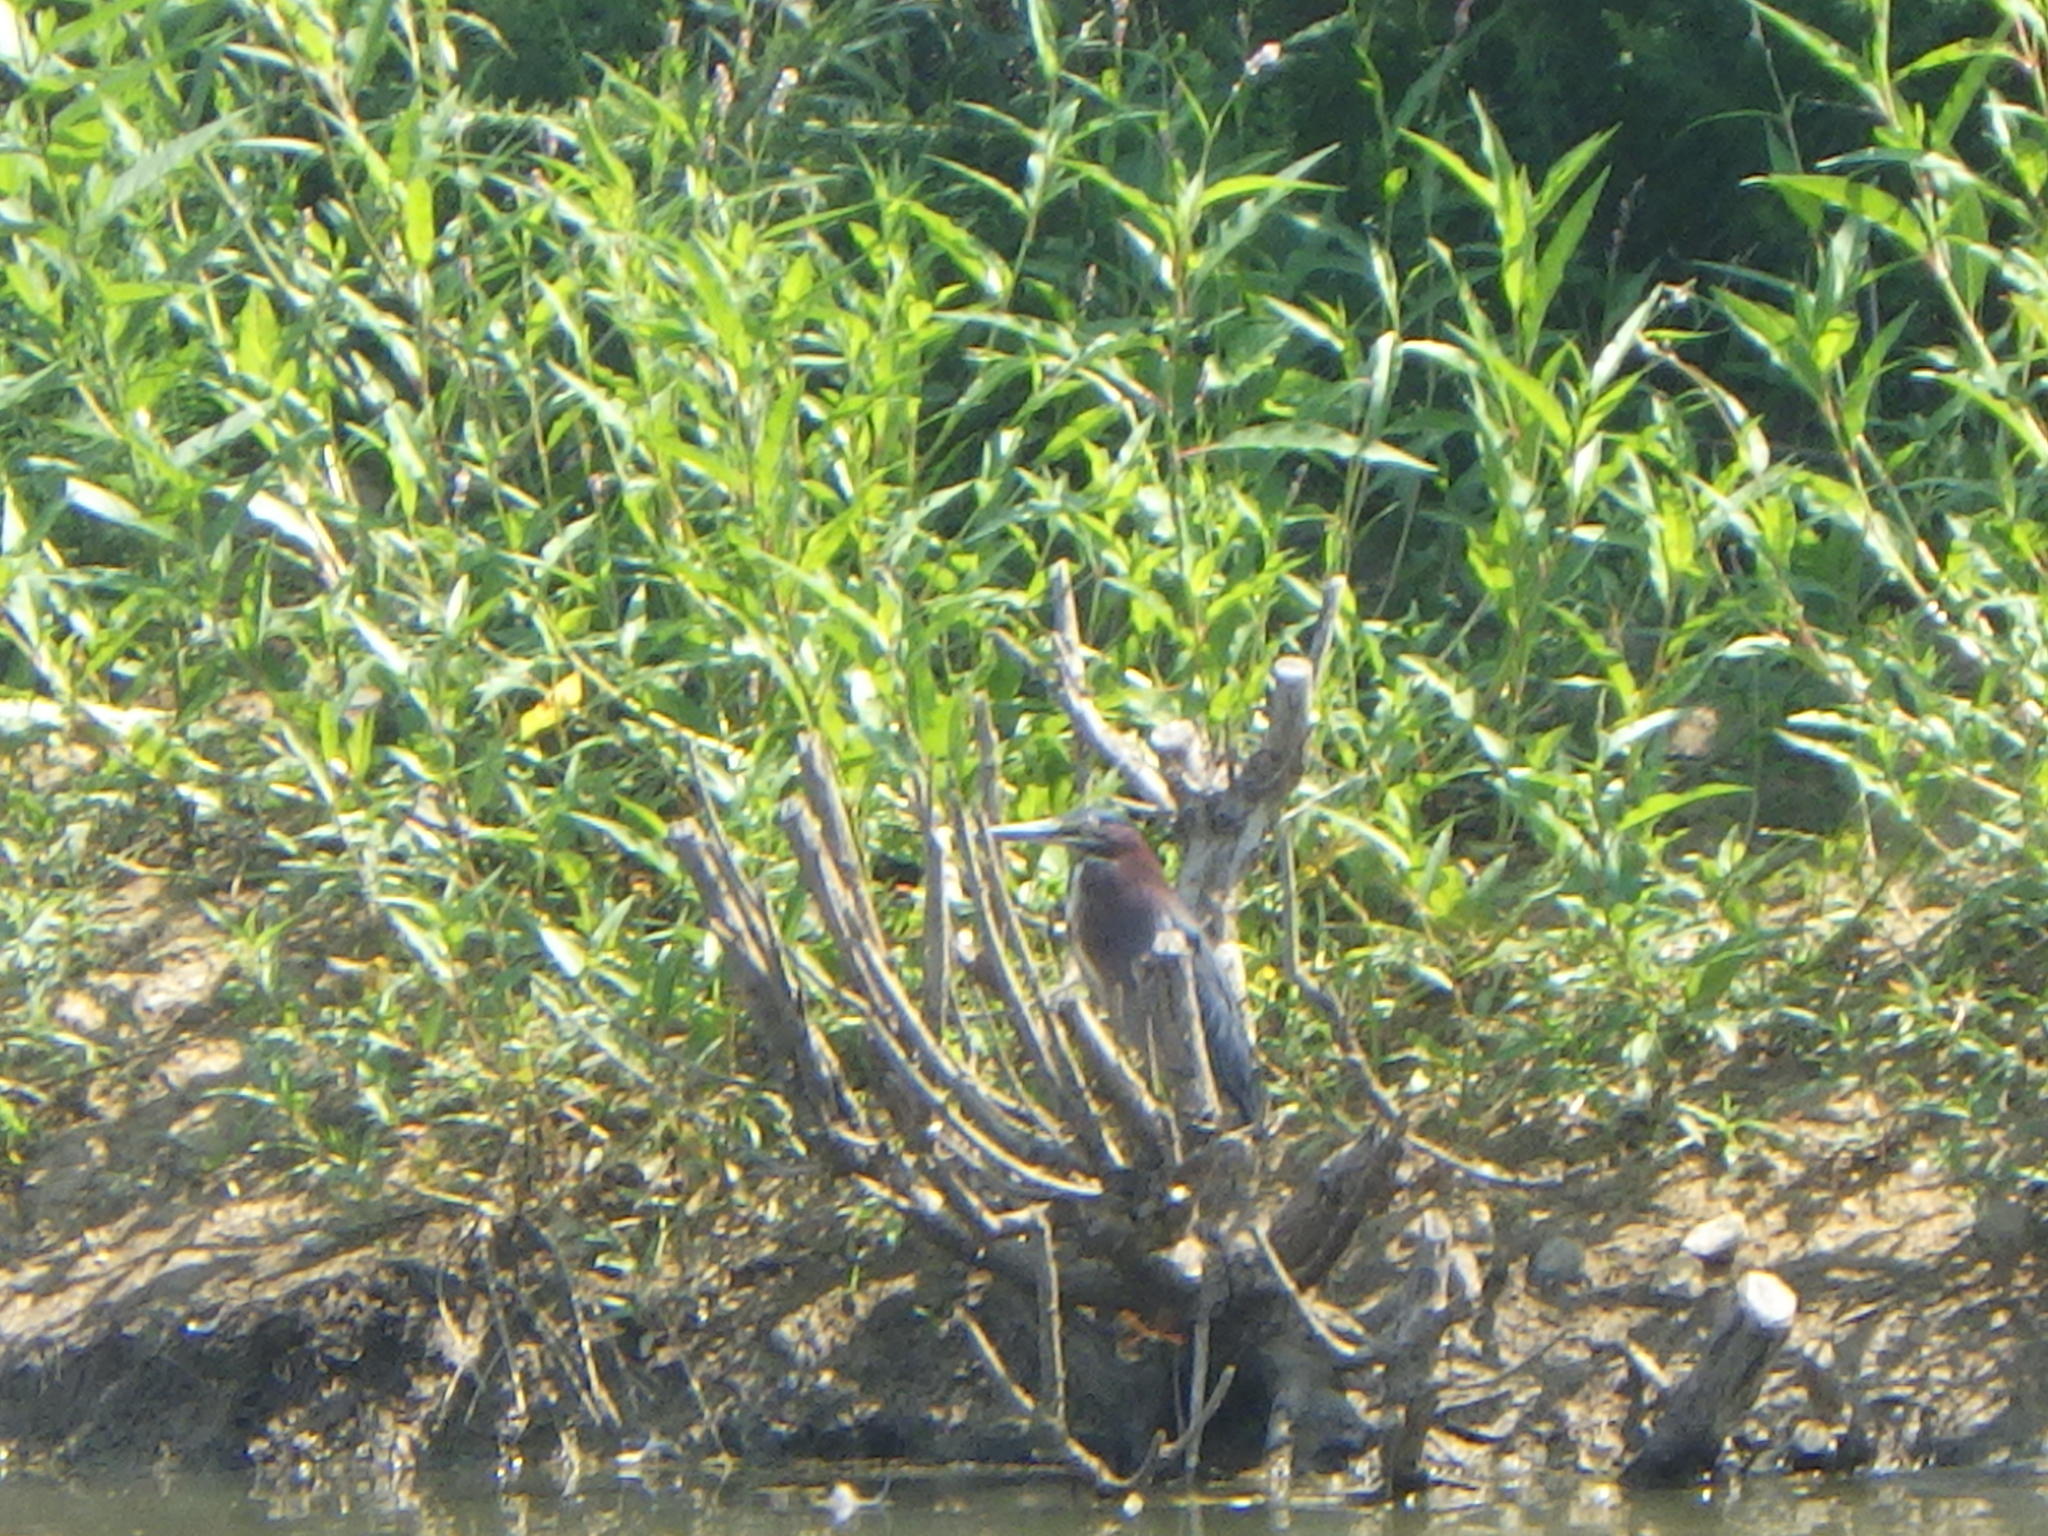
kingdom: Animalia
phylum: Chordata
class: Aves
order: Pelecaniformes
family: Ardeidae
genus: Butorides
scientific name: Butorides virescens
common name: Green heron
